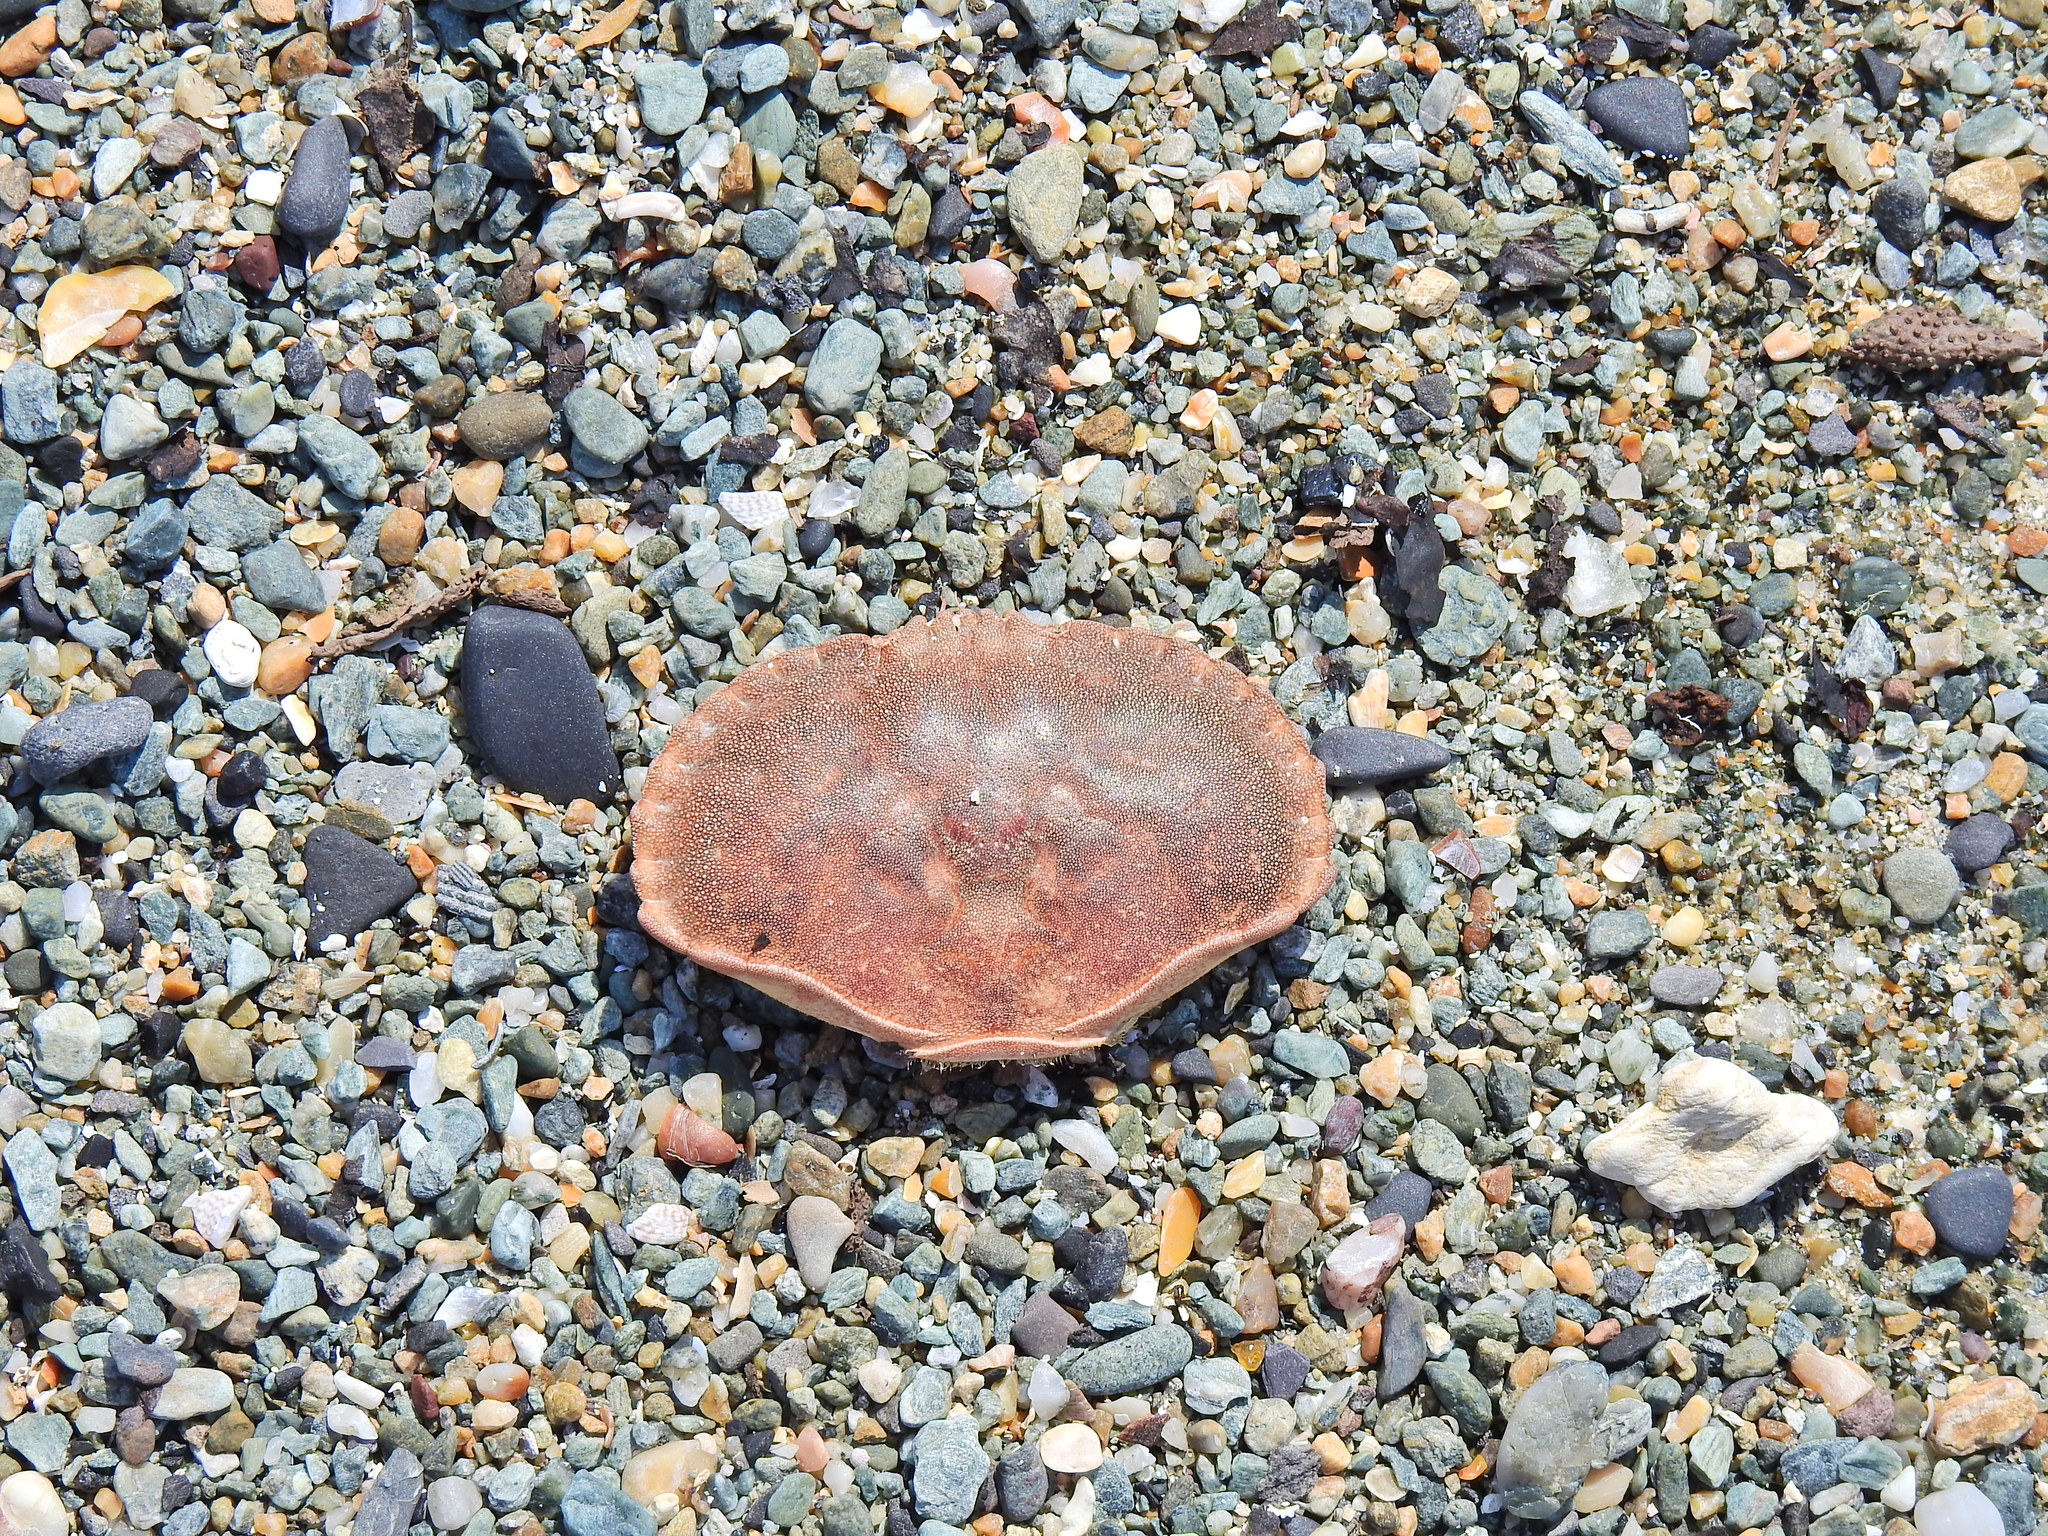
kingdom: Animalia
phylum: Arthropoda
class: Malacostraca
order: Decapoda
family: Cancridae
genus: Cancer
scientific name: Cancer pagurus
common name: Edible crab
